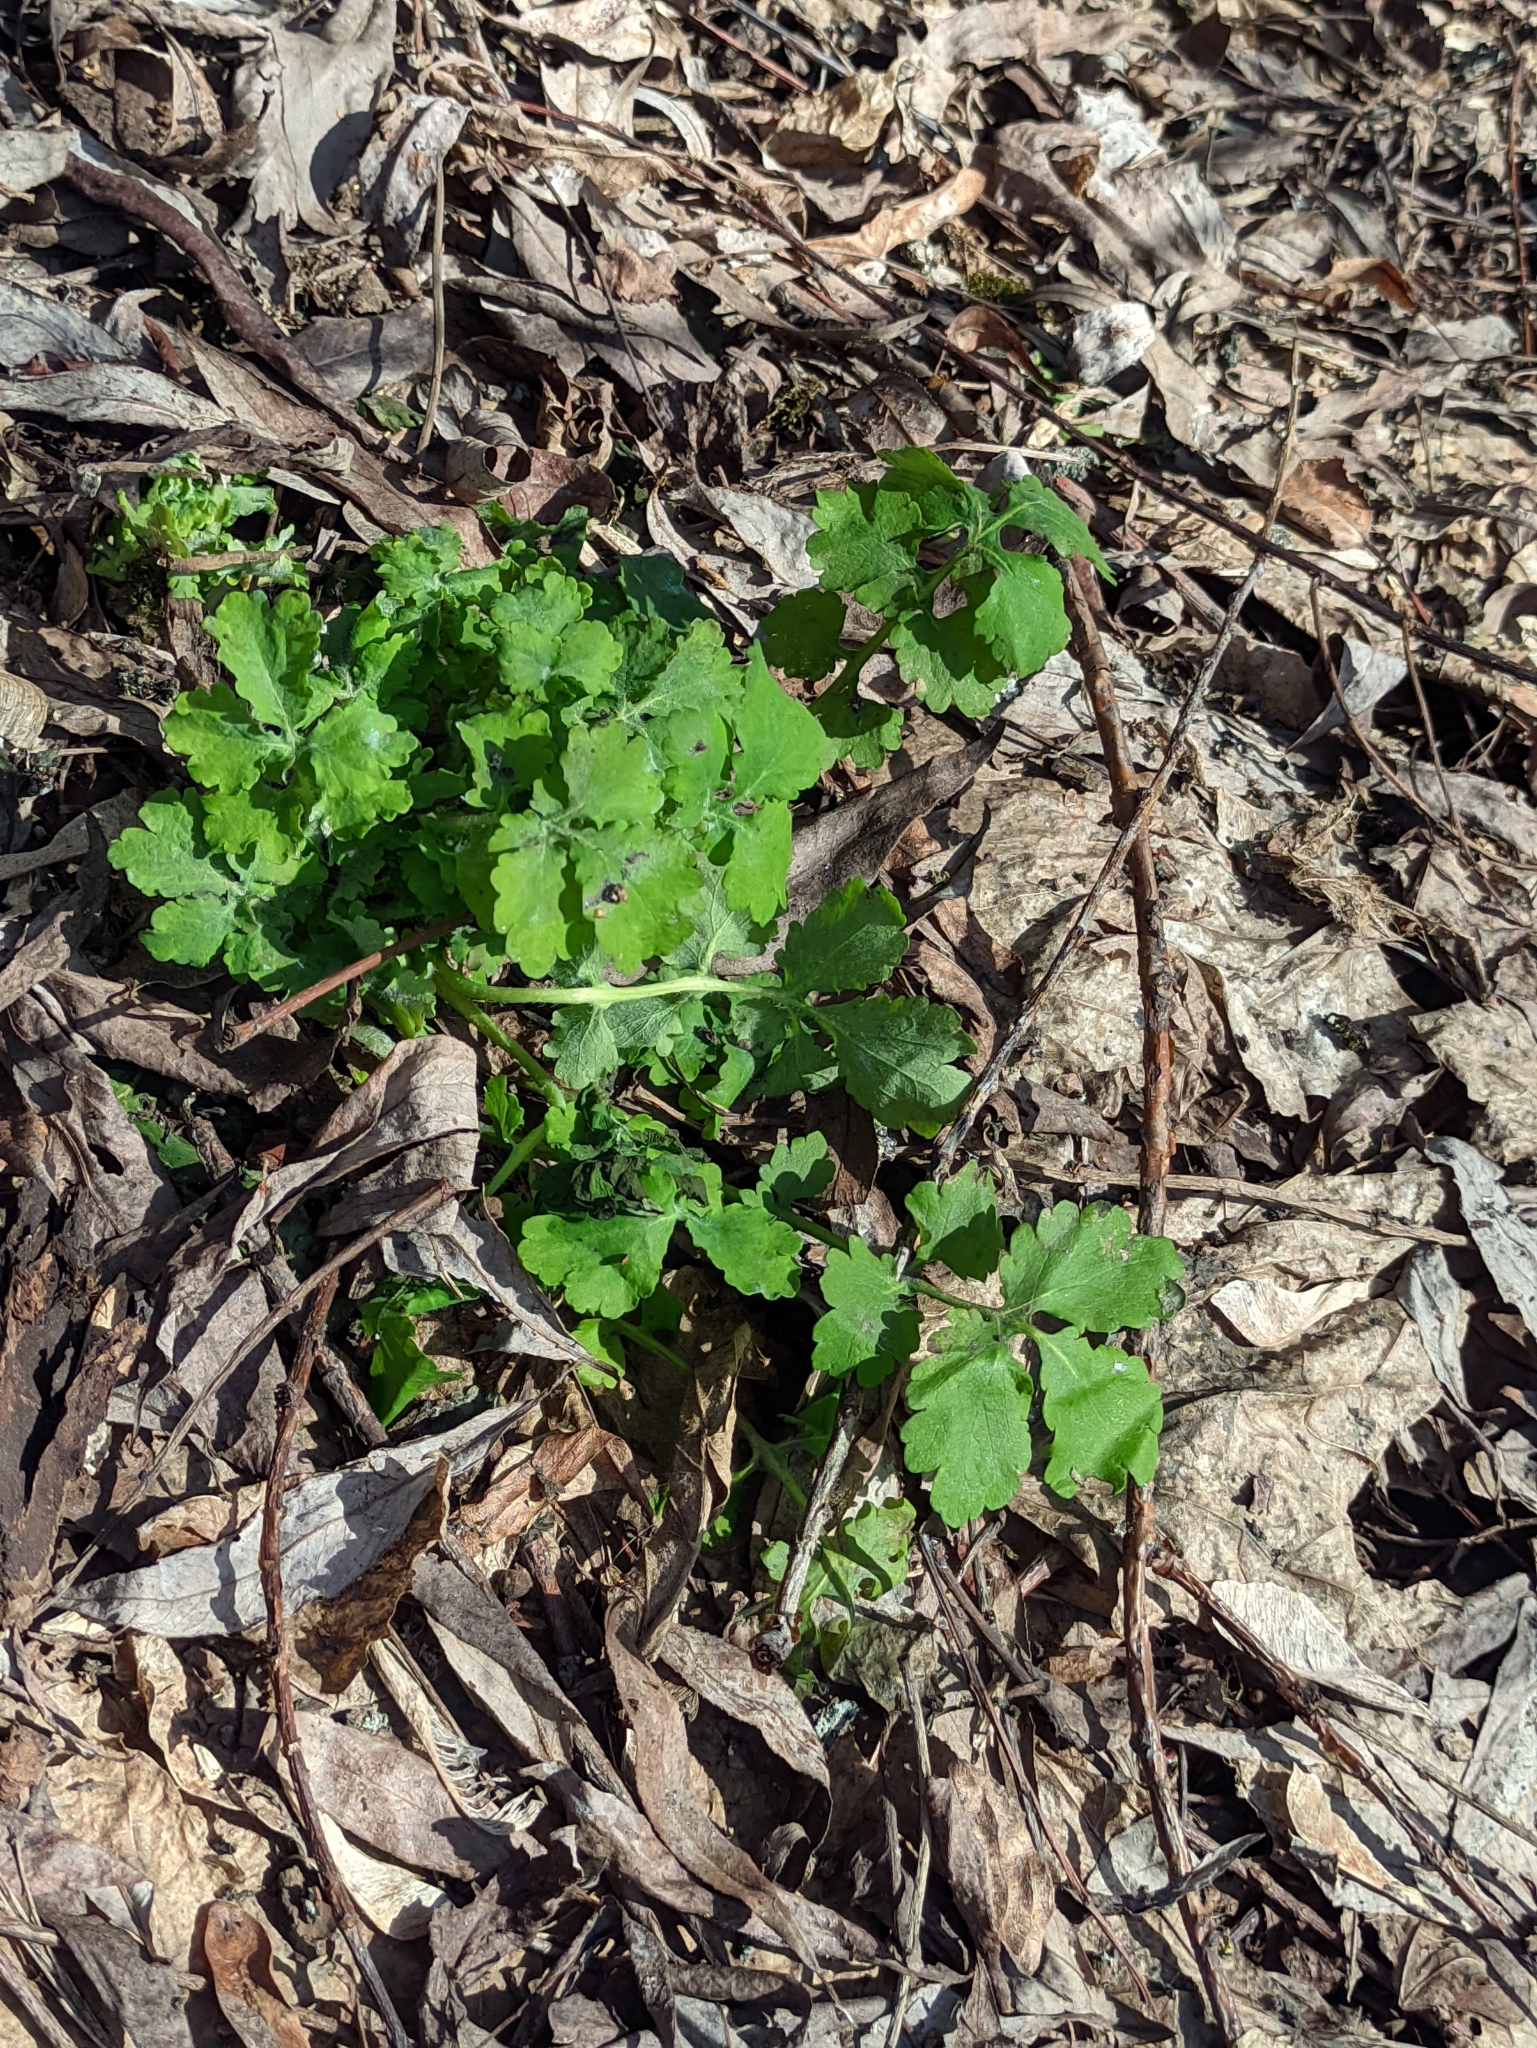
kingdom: Plantae
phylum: Tracheophyta
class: Magnoliopsida
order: Ranunculales
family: Papaveraceae
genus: Chelidonium
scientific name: Chelidonium majus
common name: Greater celandine
